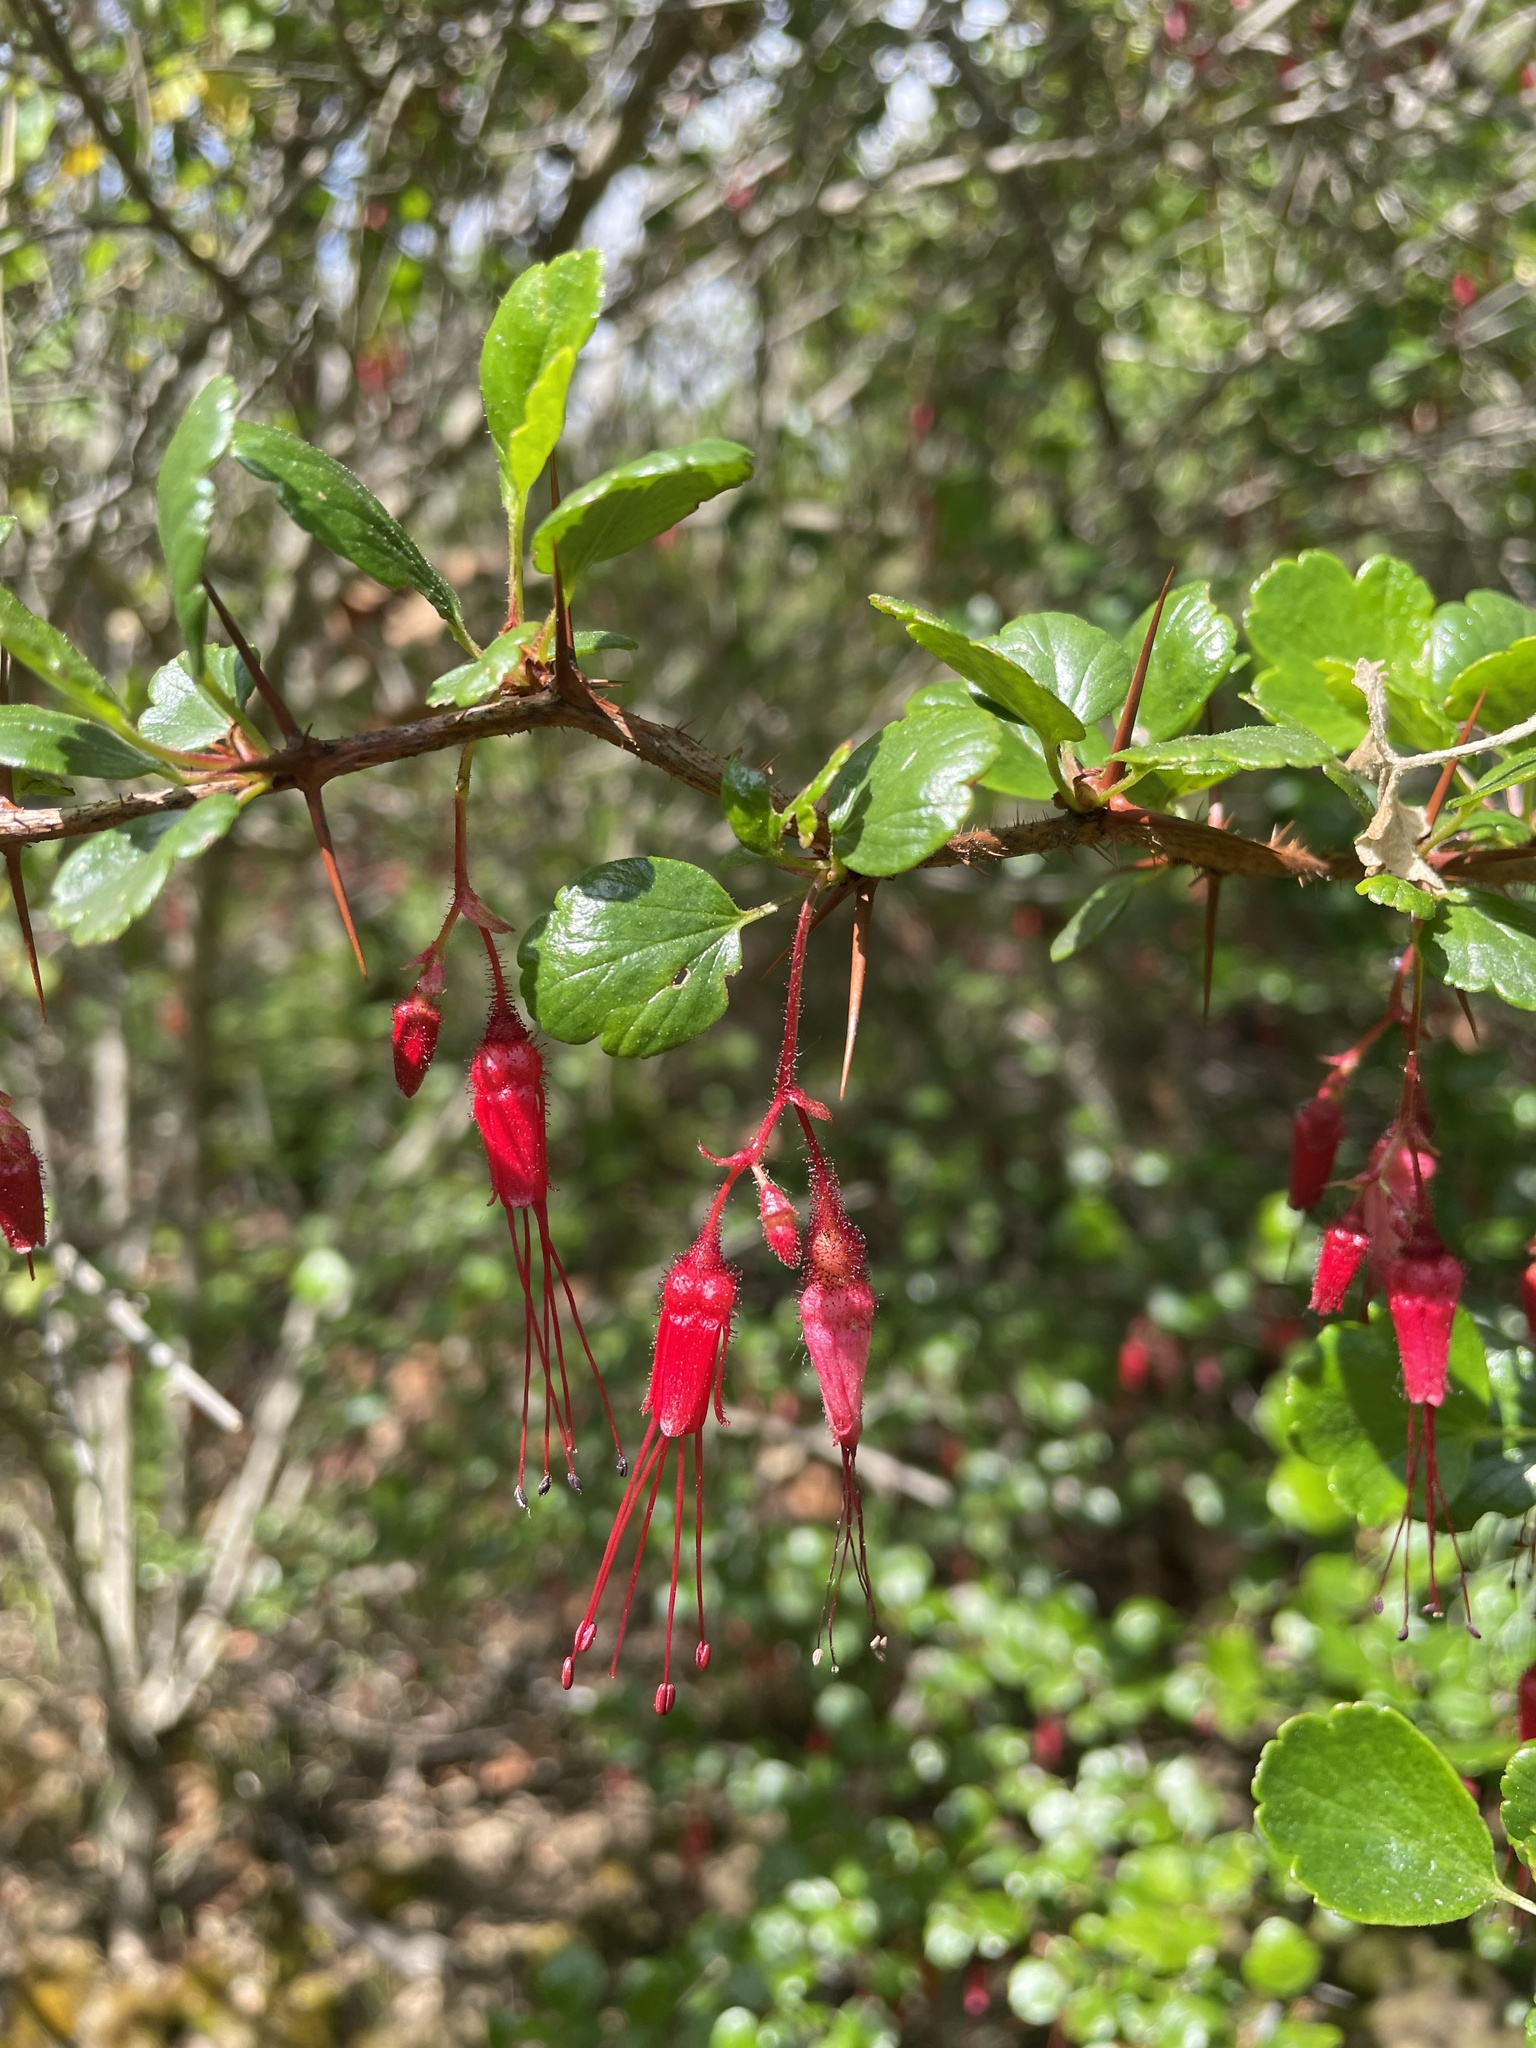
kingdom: Plantae
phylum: Tracheophyta
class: Magnoliopsida
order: Saxifragales
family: Grossulariaceae
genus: Ribes
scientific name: Ribes speciosum
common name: Fuchsia-flower gooseberry
